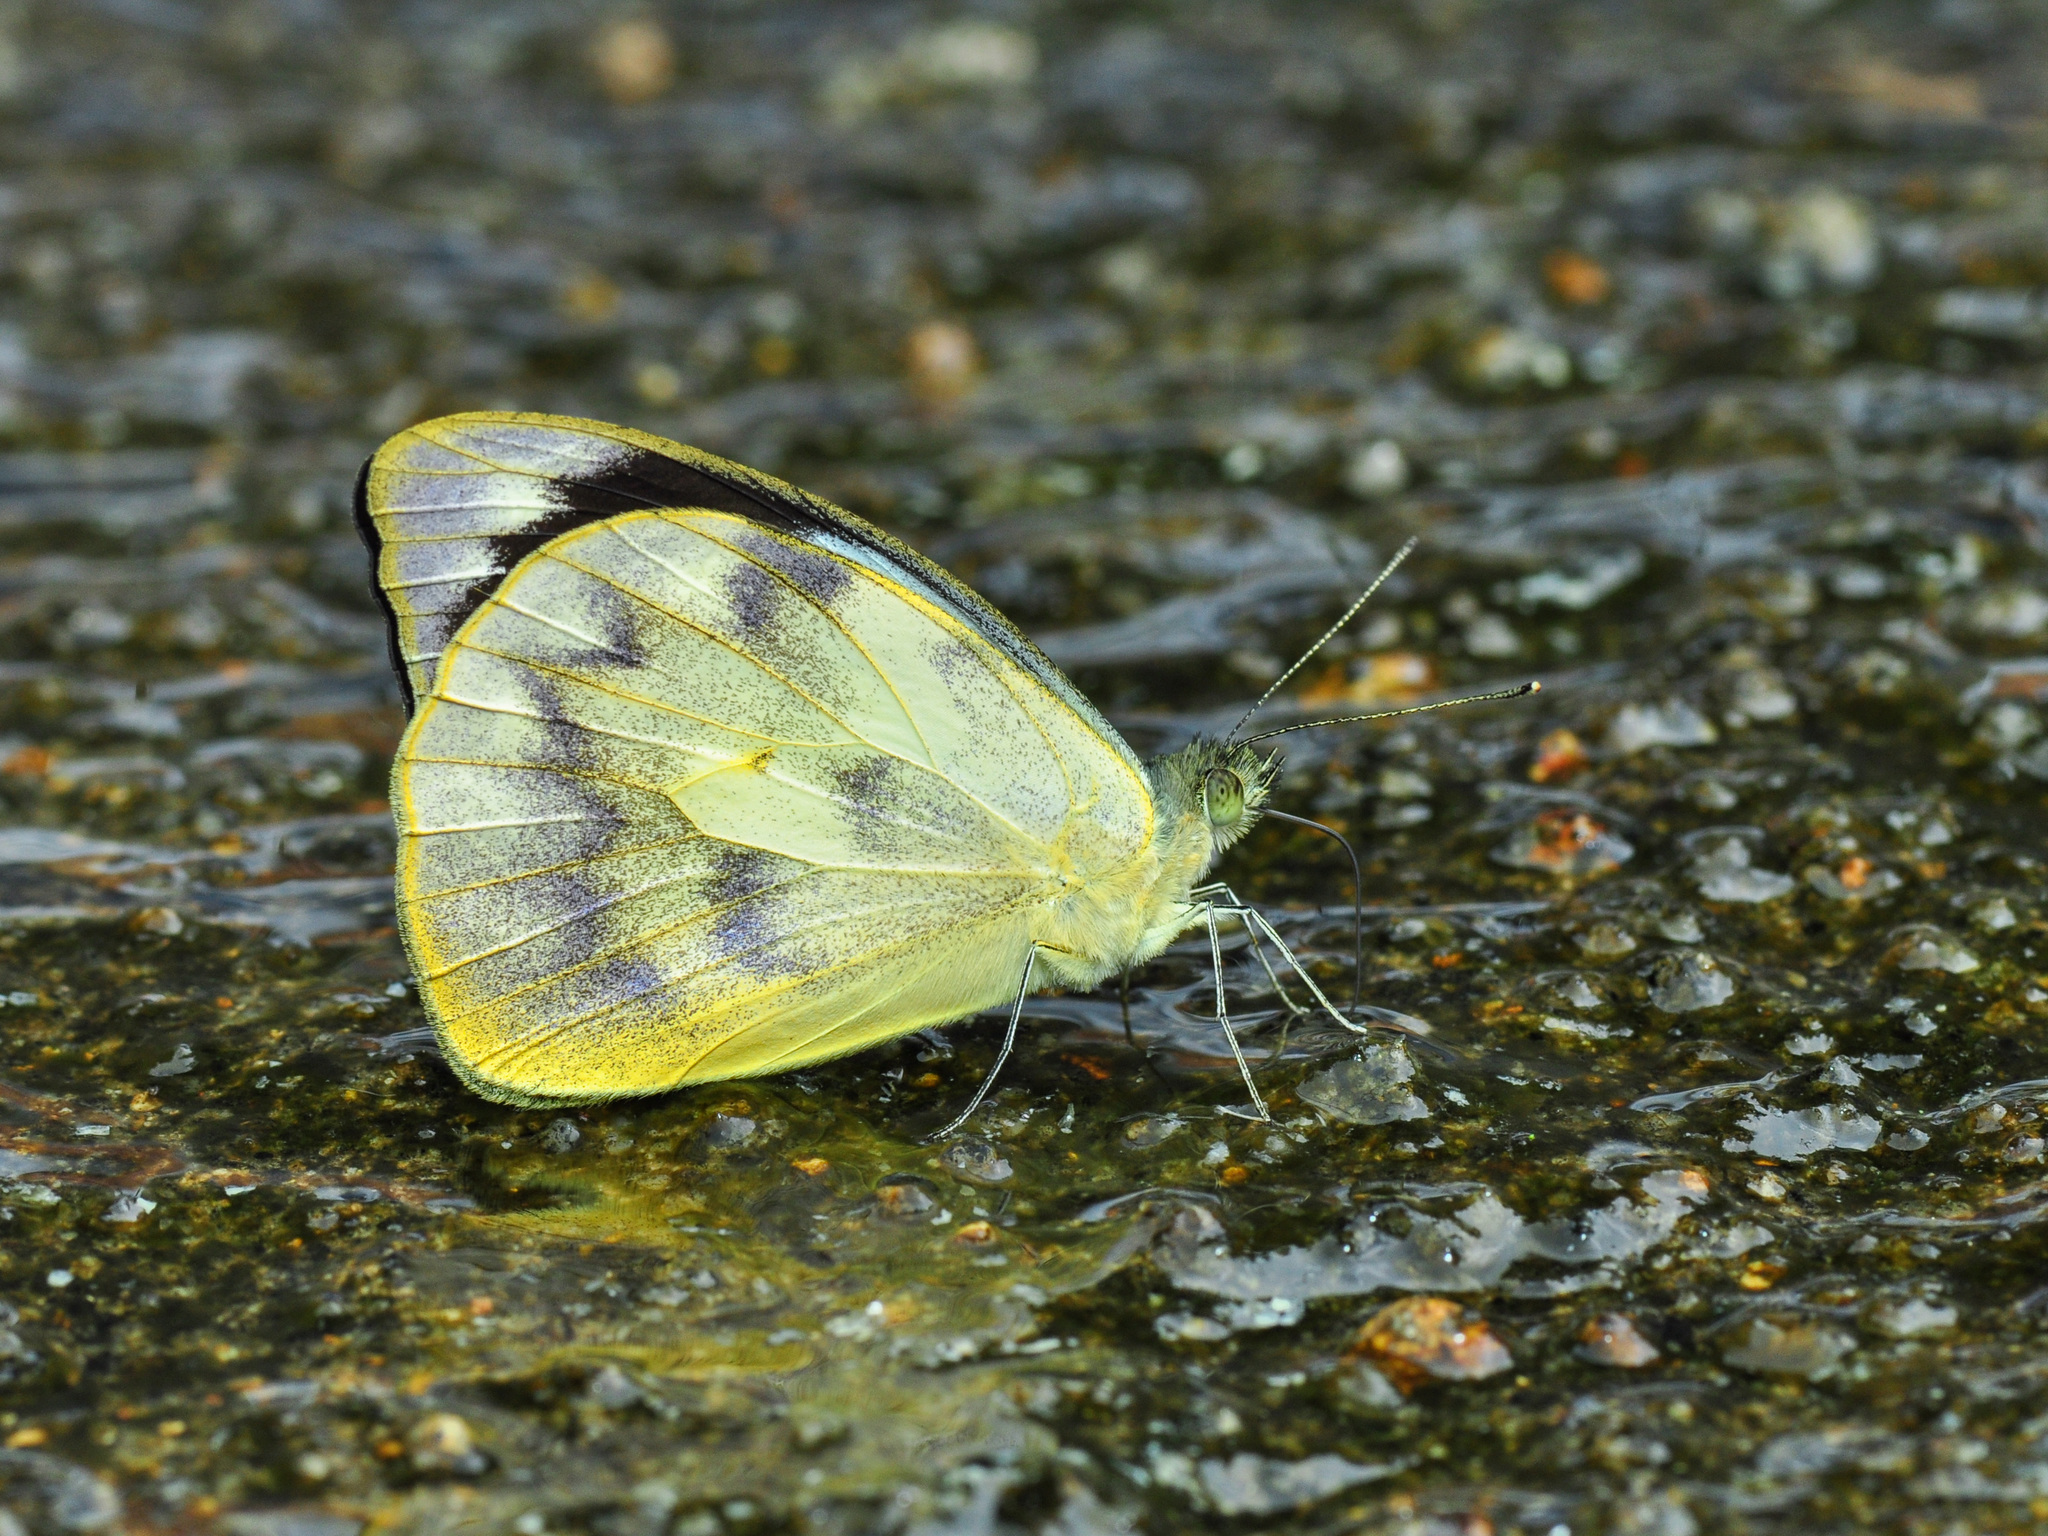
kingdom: Animalia
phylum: Arthropoda
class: Insecta
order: Lepidoptera
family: Pieridae
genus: Appias
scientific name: Appias pandione
